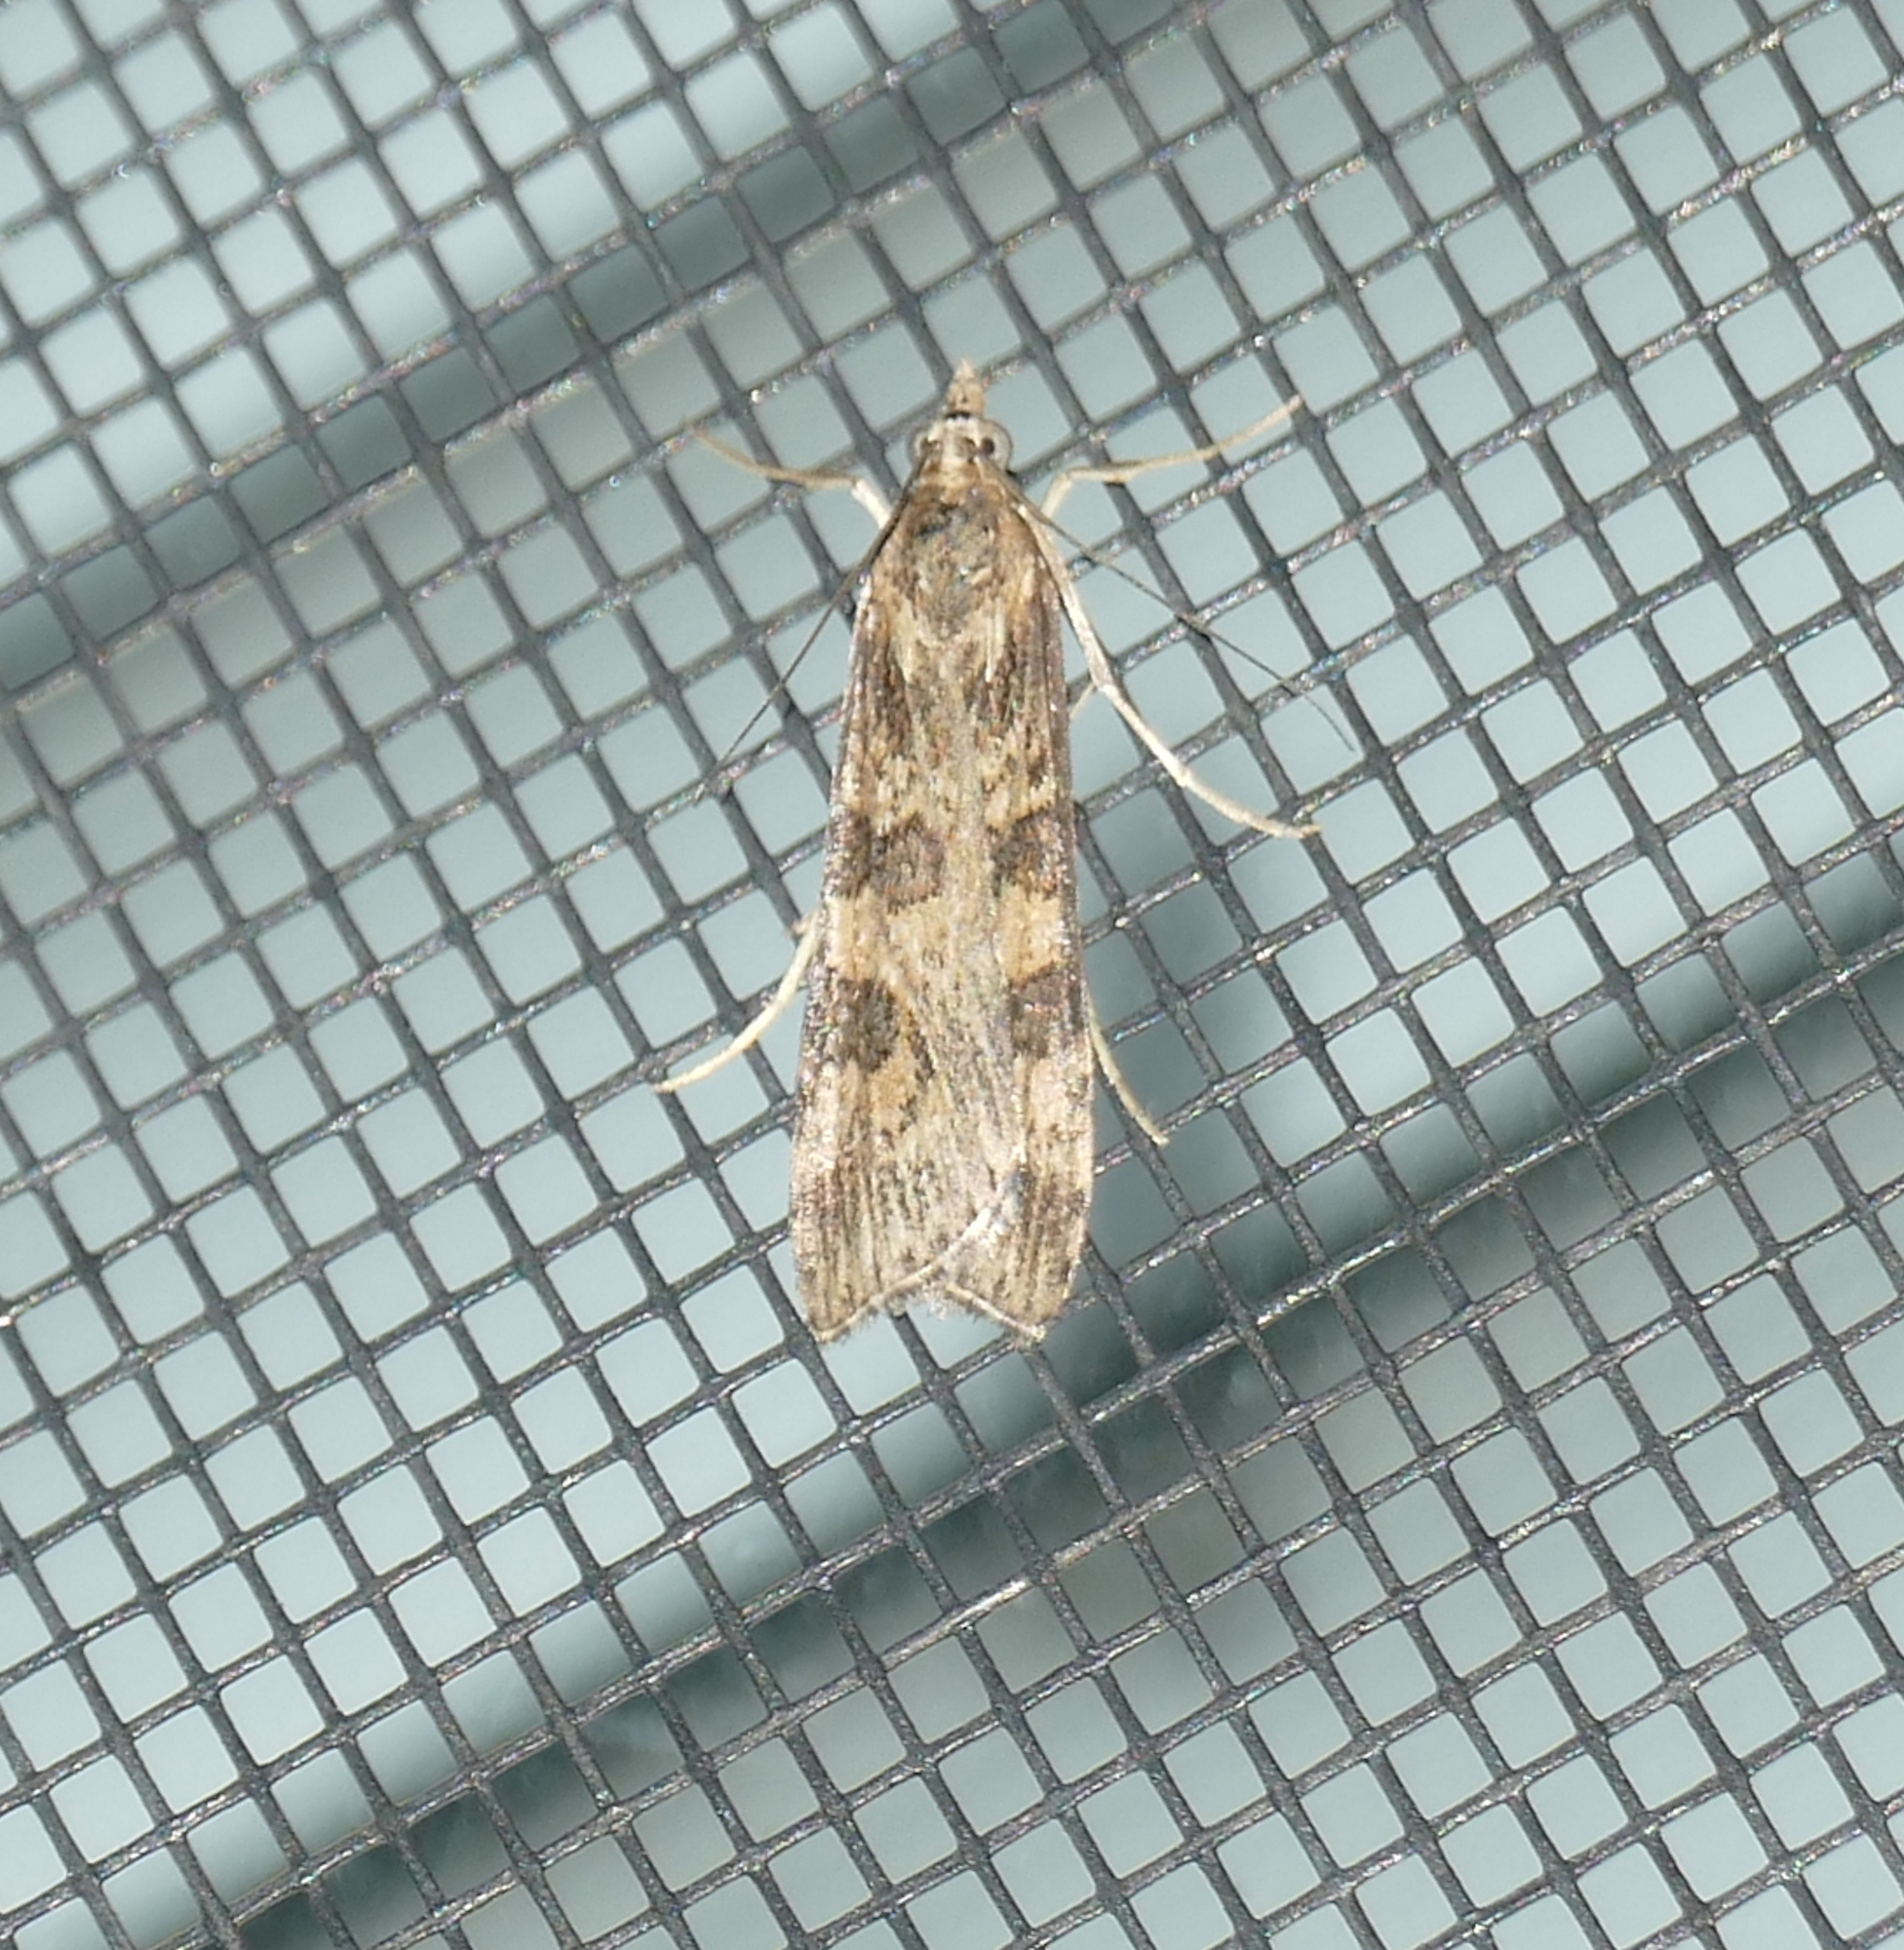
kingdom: Animalia
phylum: Arthropoda
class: Insecta
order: Lepidoptera
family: Crambidae
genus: Nomophila
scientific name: Nomophila nearctica
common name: American rush veneer
